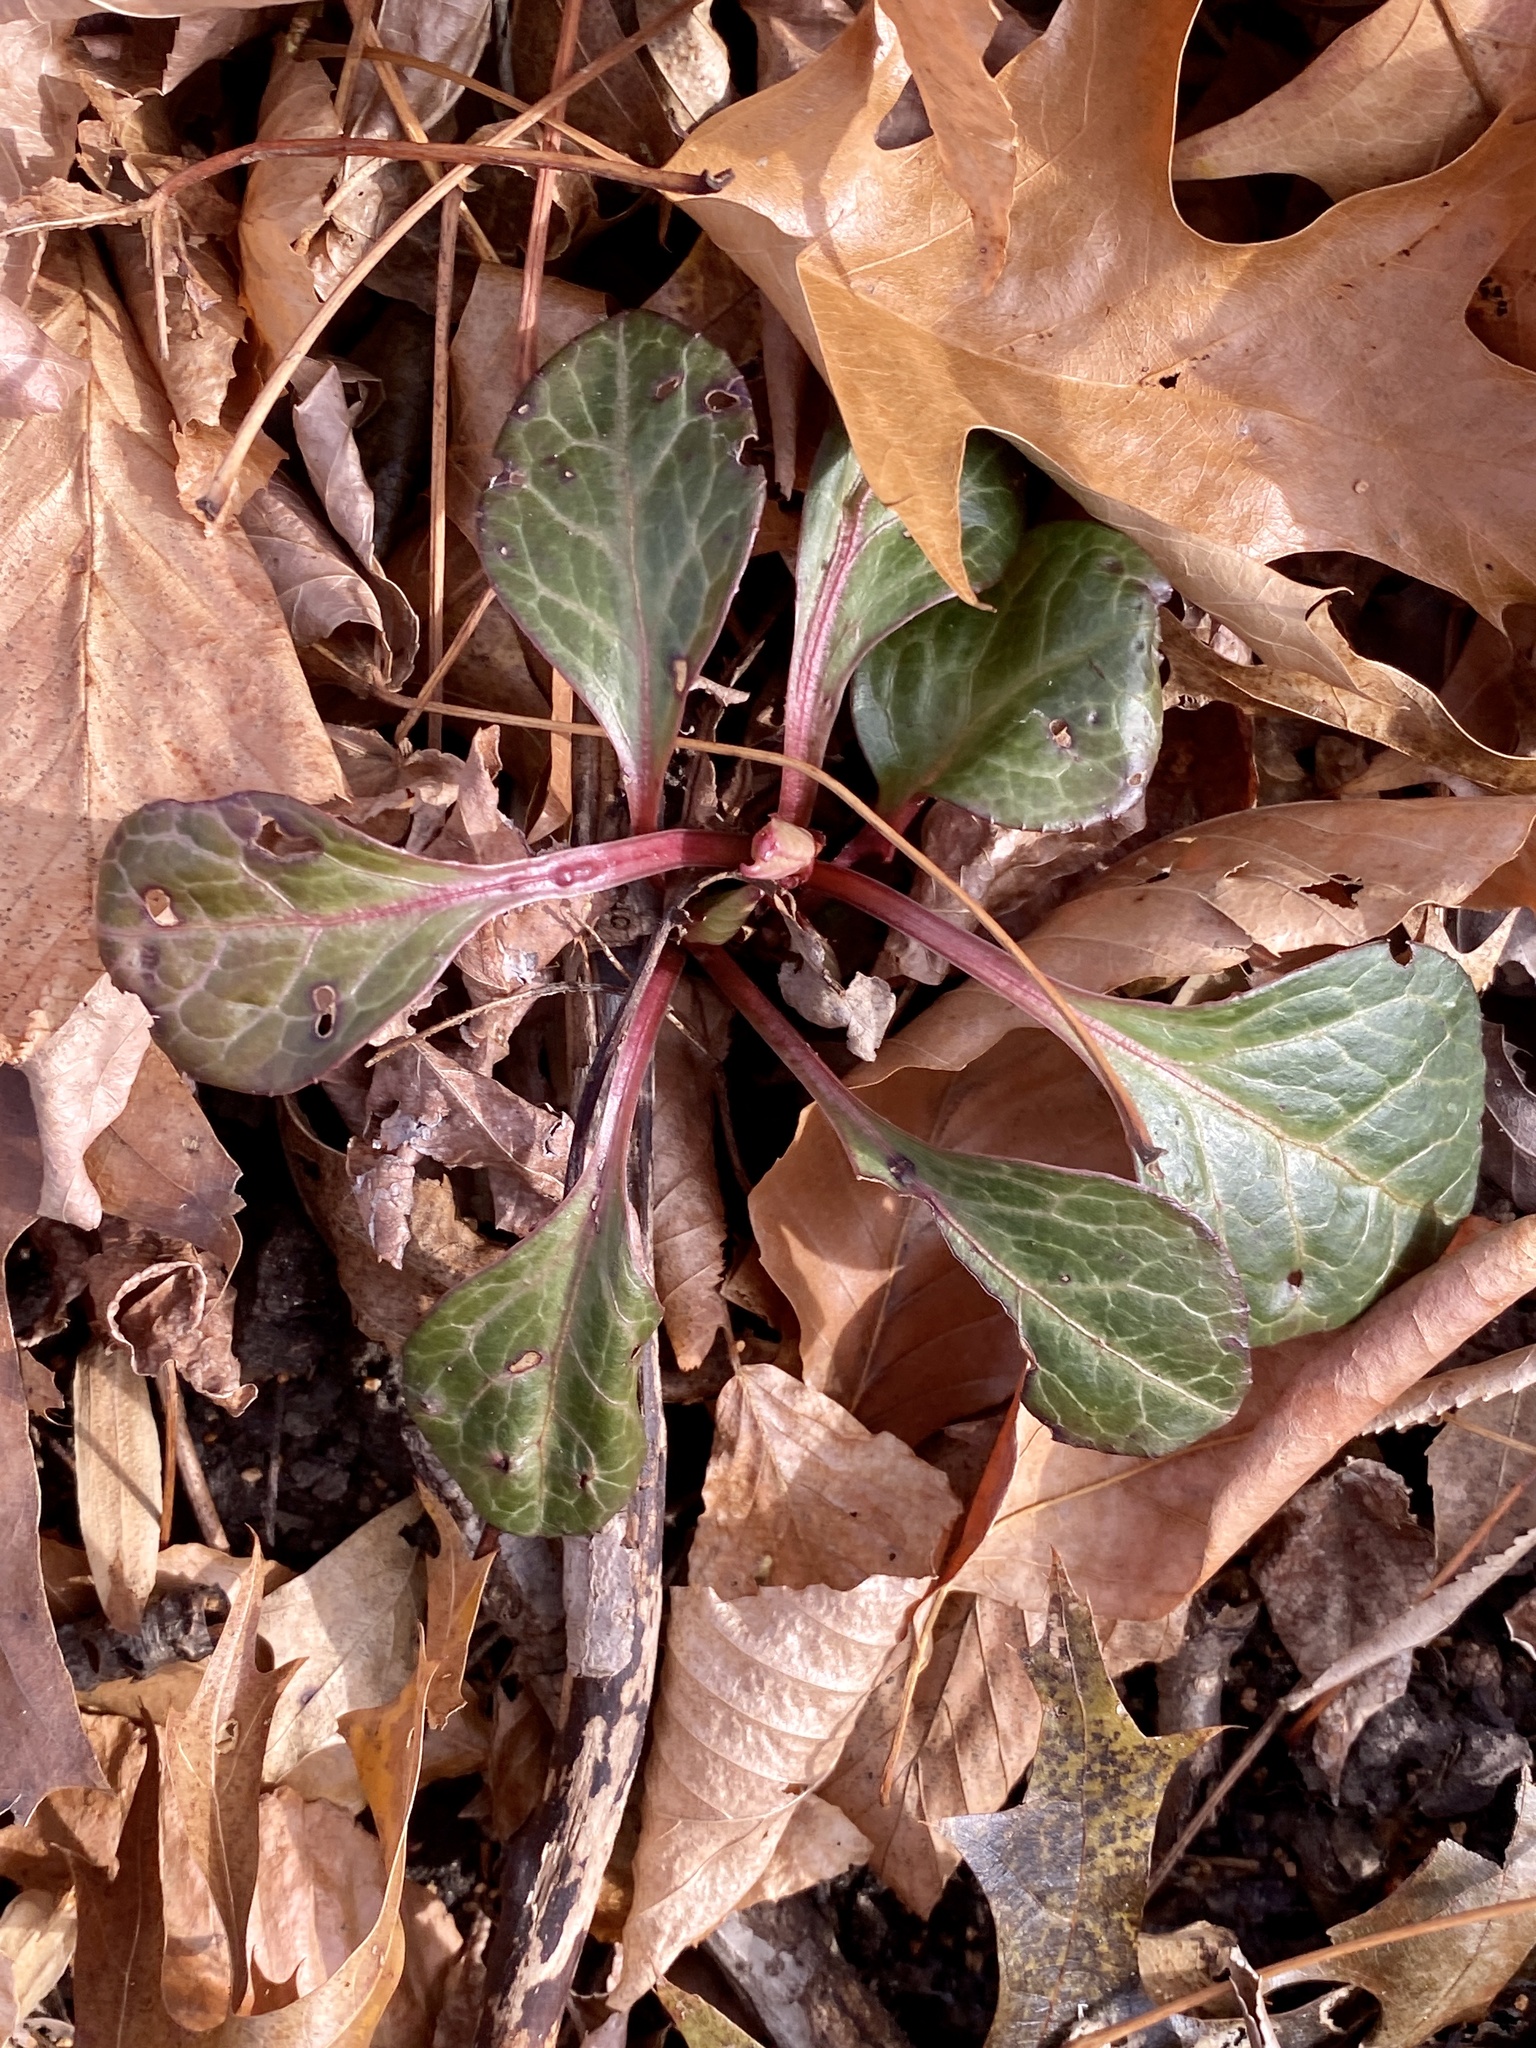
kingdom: Plantae
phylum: Tracheophyta
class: Magnoliopsida
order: Ericales
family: Ericaceae
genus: Pyrola
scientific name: Pyrola americana
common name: American wintergreen
